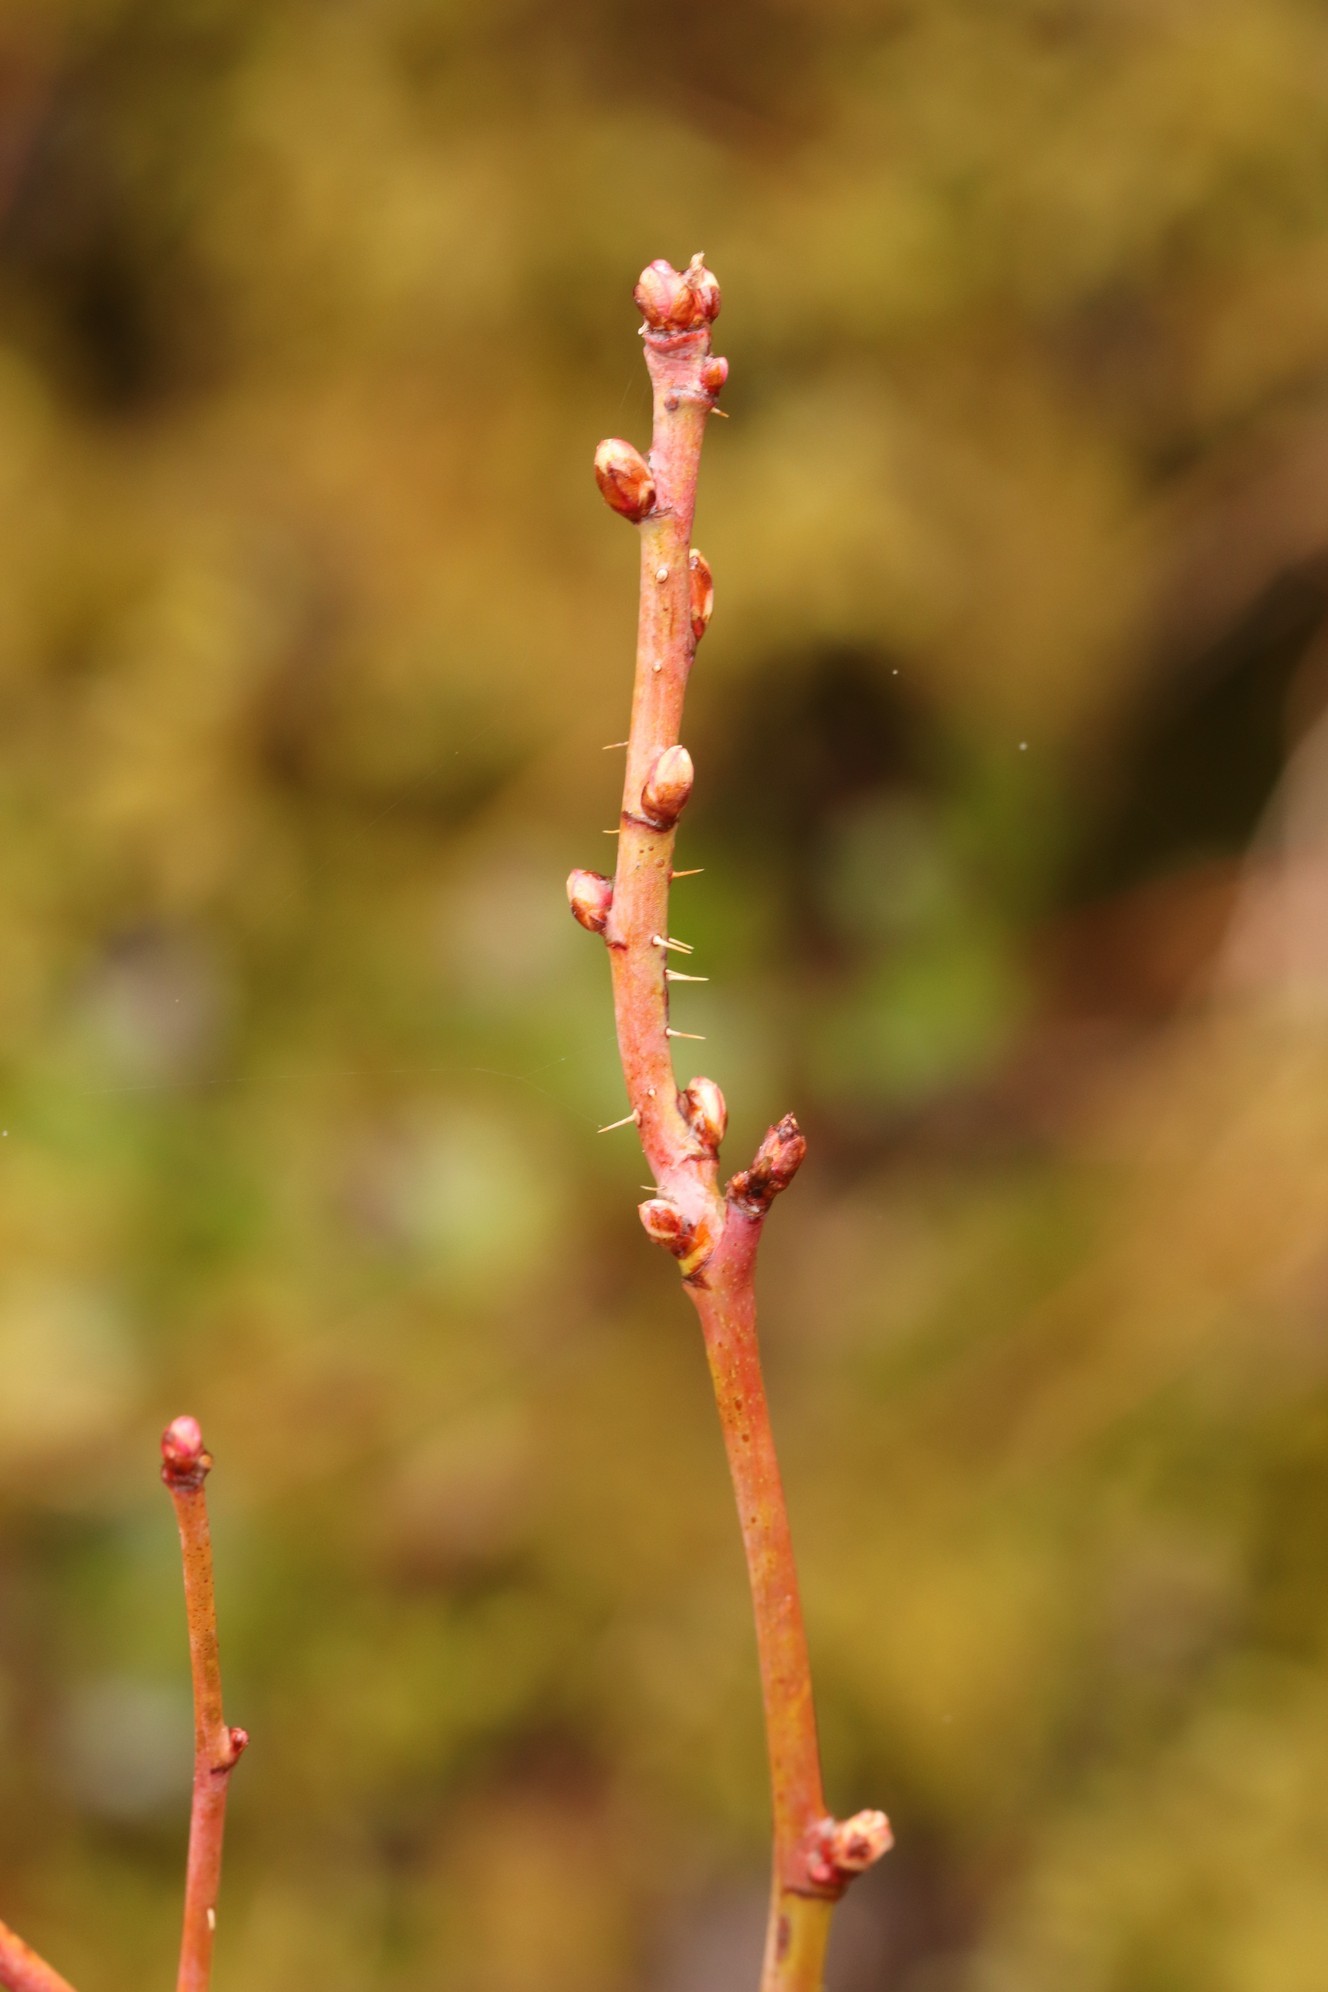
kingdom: Plantae
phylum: Tracheophyta
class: Magnoliopsida
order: Rosales
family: Rosaceae
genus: Rosa
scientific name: Rosa acicularis
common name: Prickly rose
